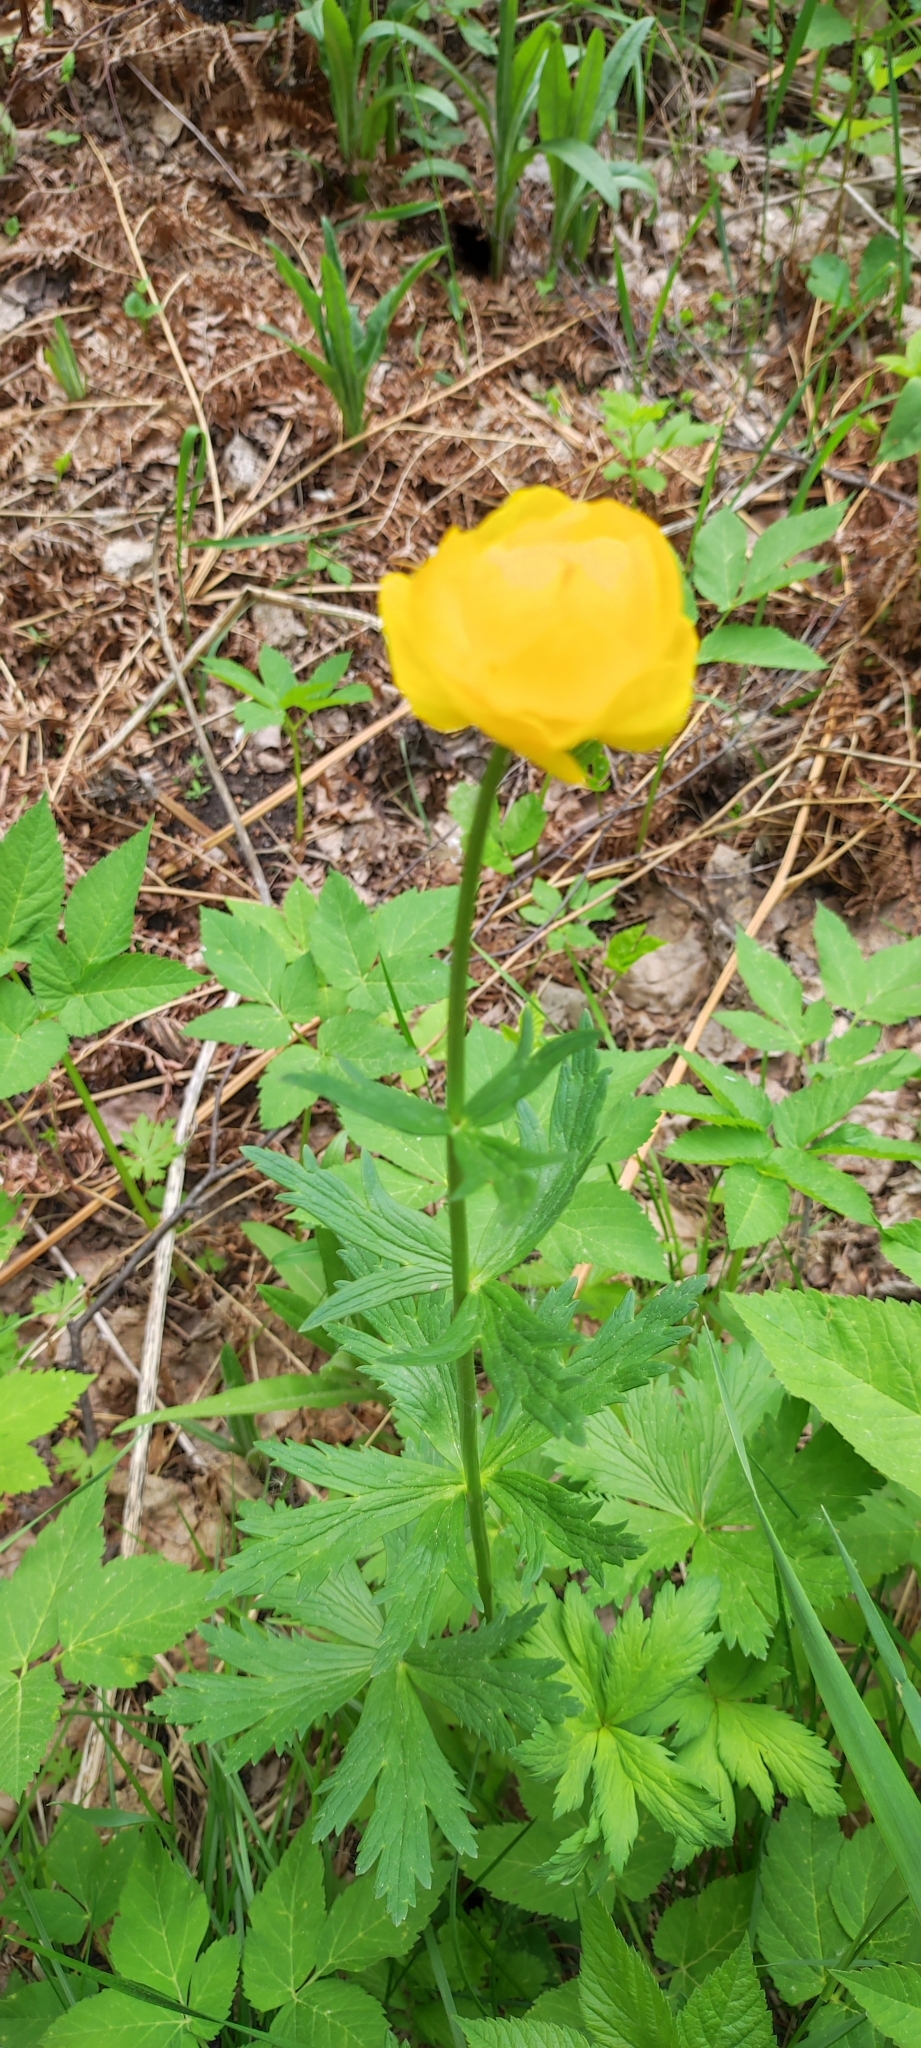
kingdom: Plantae
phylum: Tracheophyta
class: Magnoliopsida
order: Ranunculales
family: Ranunculaceae
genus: Trollius
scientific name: Trollius europaeus
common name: European globeflower
